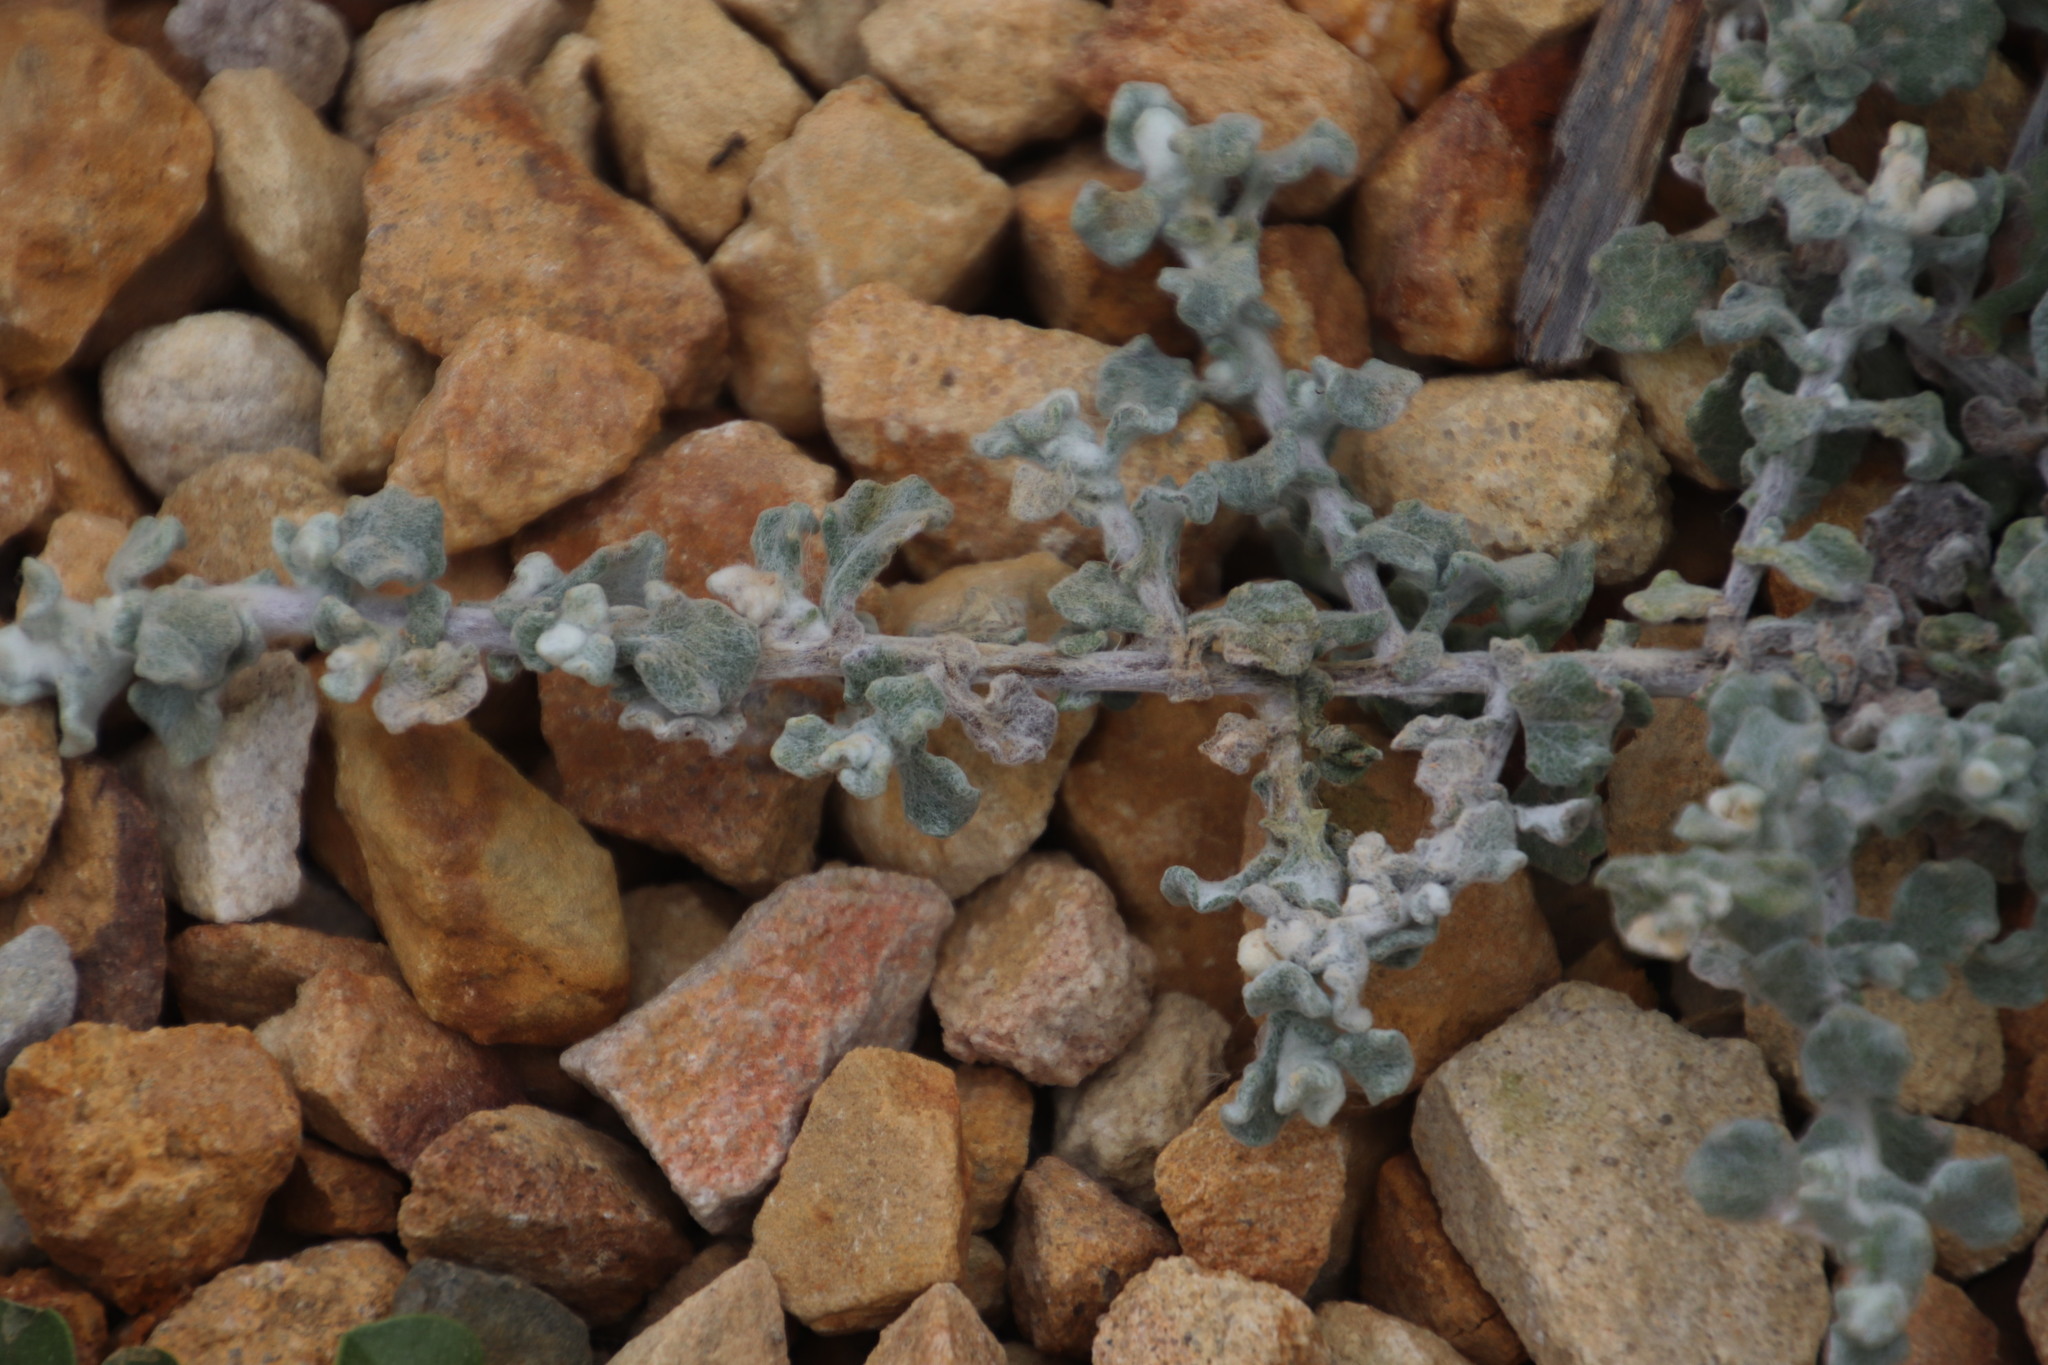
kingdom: Plantae
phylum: Tracheophyta
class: Magnoliopsida
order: Asterales
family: Asteraceae
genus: Helichrysum
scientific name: Helichrysum patulum
